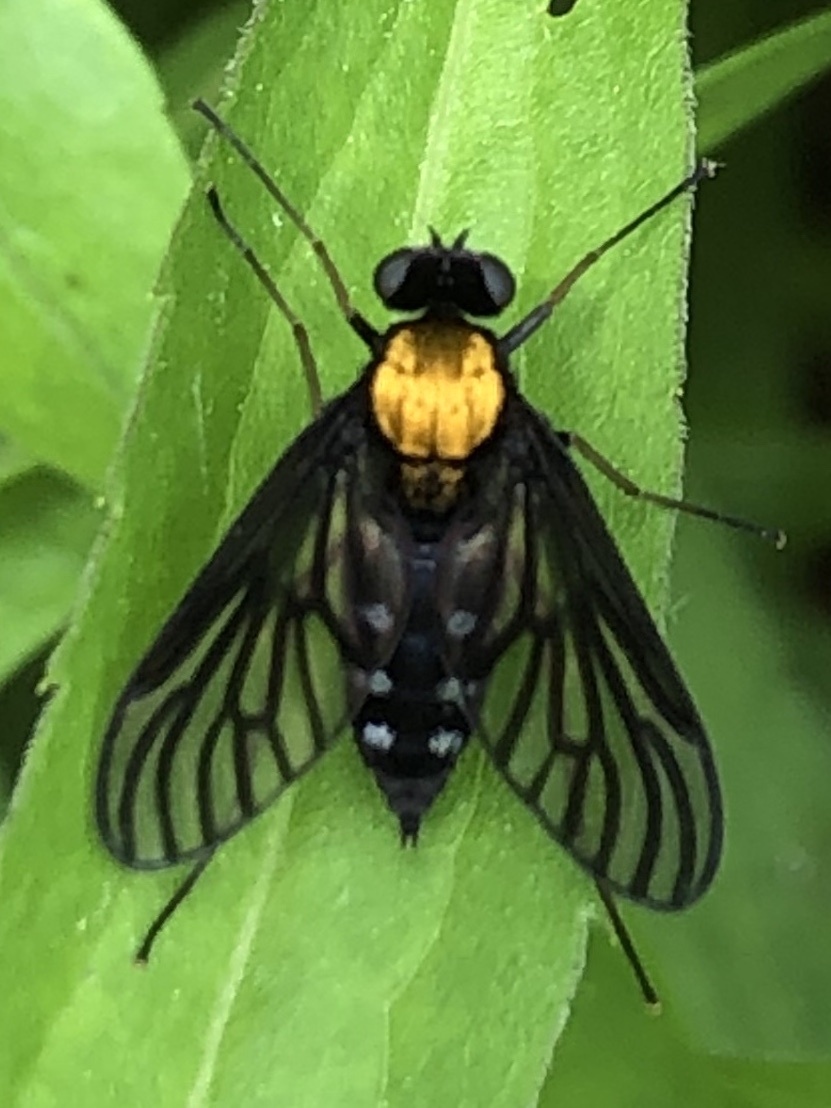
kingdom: Animalia
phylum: Arthropoda
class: Insecta
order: Diptera
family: Rhagionidae
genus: Chrysopilus
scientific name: Chrysopilus thoracicus
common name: Golden-backed snipe fly
